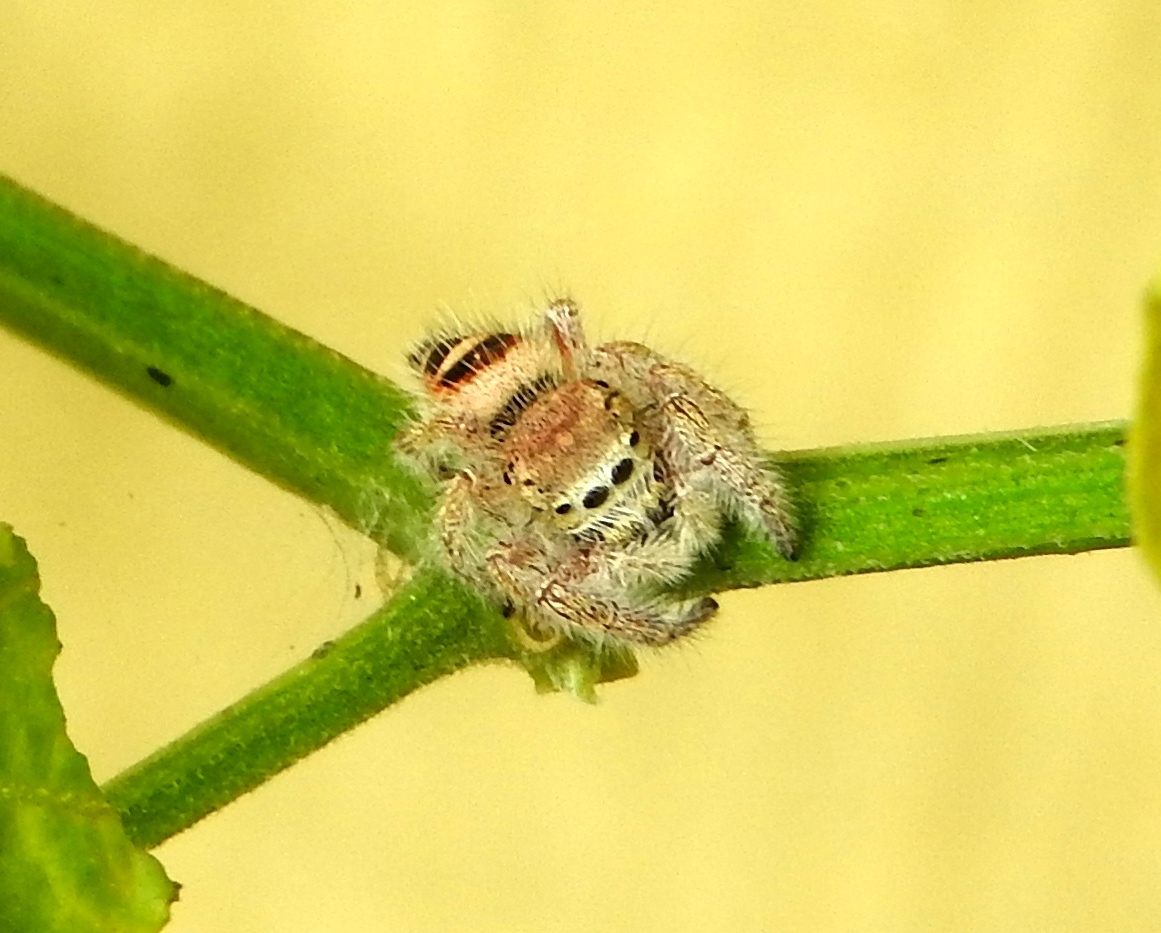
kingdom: Animalia
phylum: Arthropoda
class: Arachnida
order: Araneae
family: Salticidae
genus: Phidippus
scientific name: Phidippus pacosauritus
